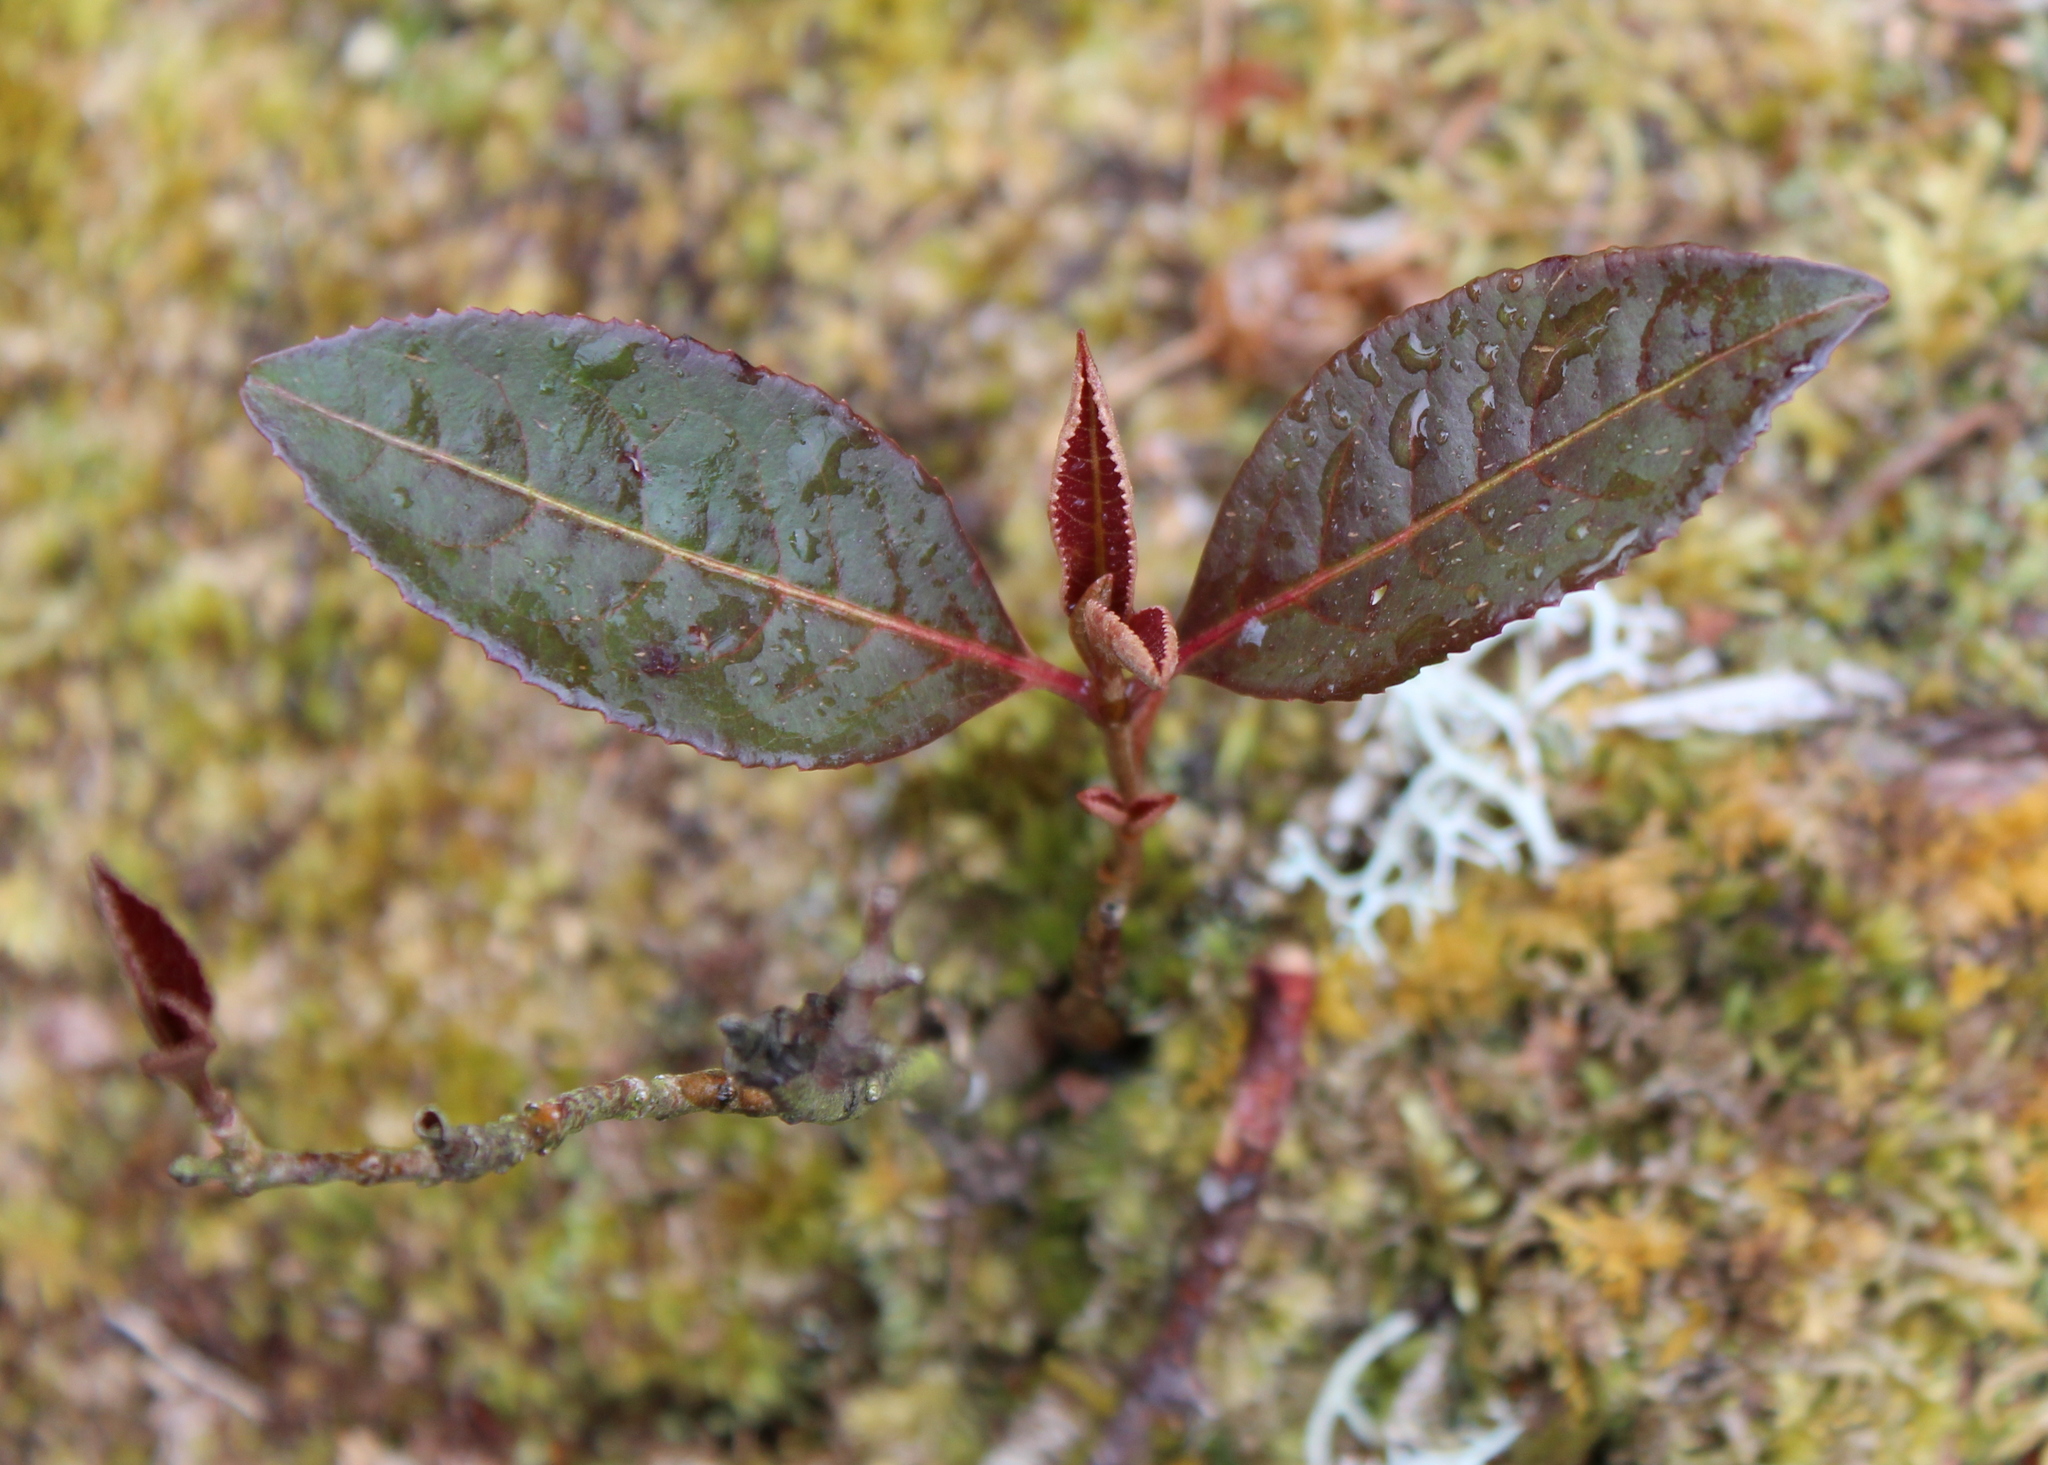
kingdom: Plantae
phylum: Tracheophyta
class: Magnoliopsida
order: Dipsacales
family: Viburnaceae
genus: Viburnum
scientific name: Viburnum cassinoides
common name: Swamp haw
